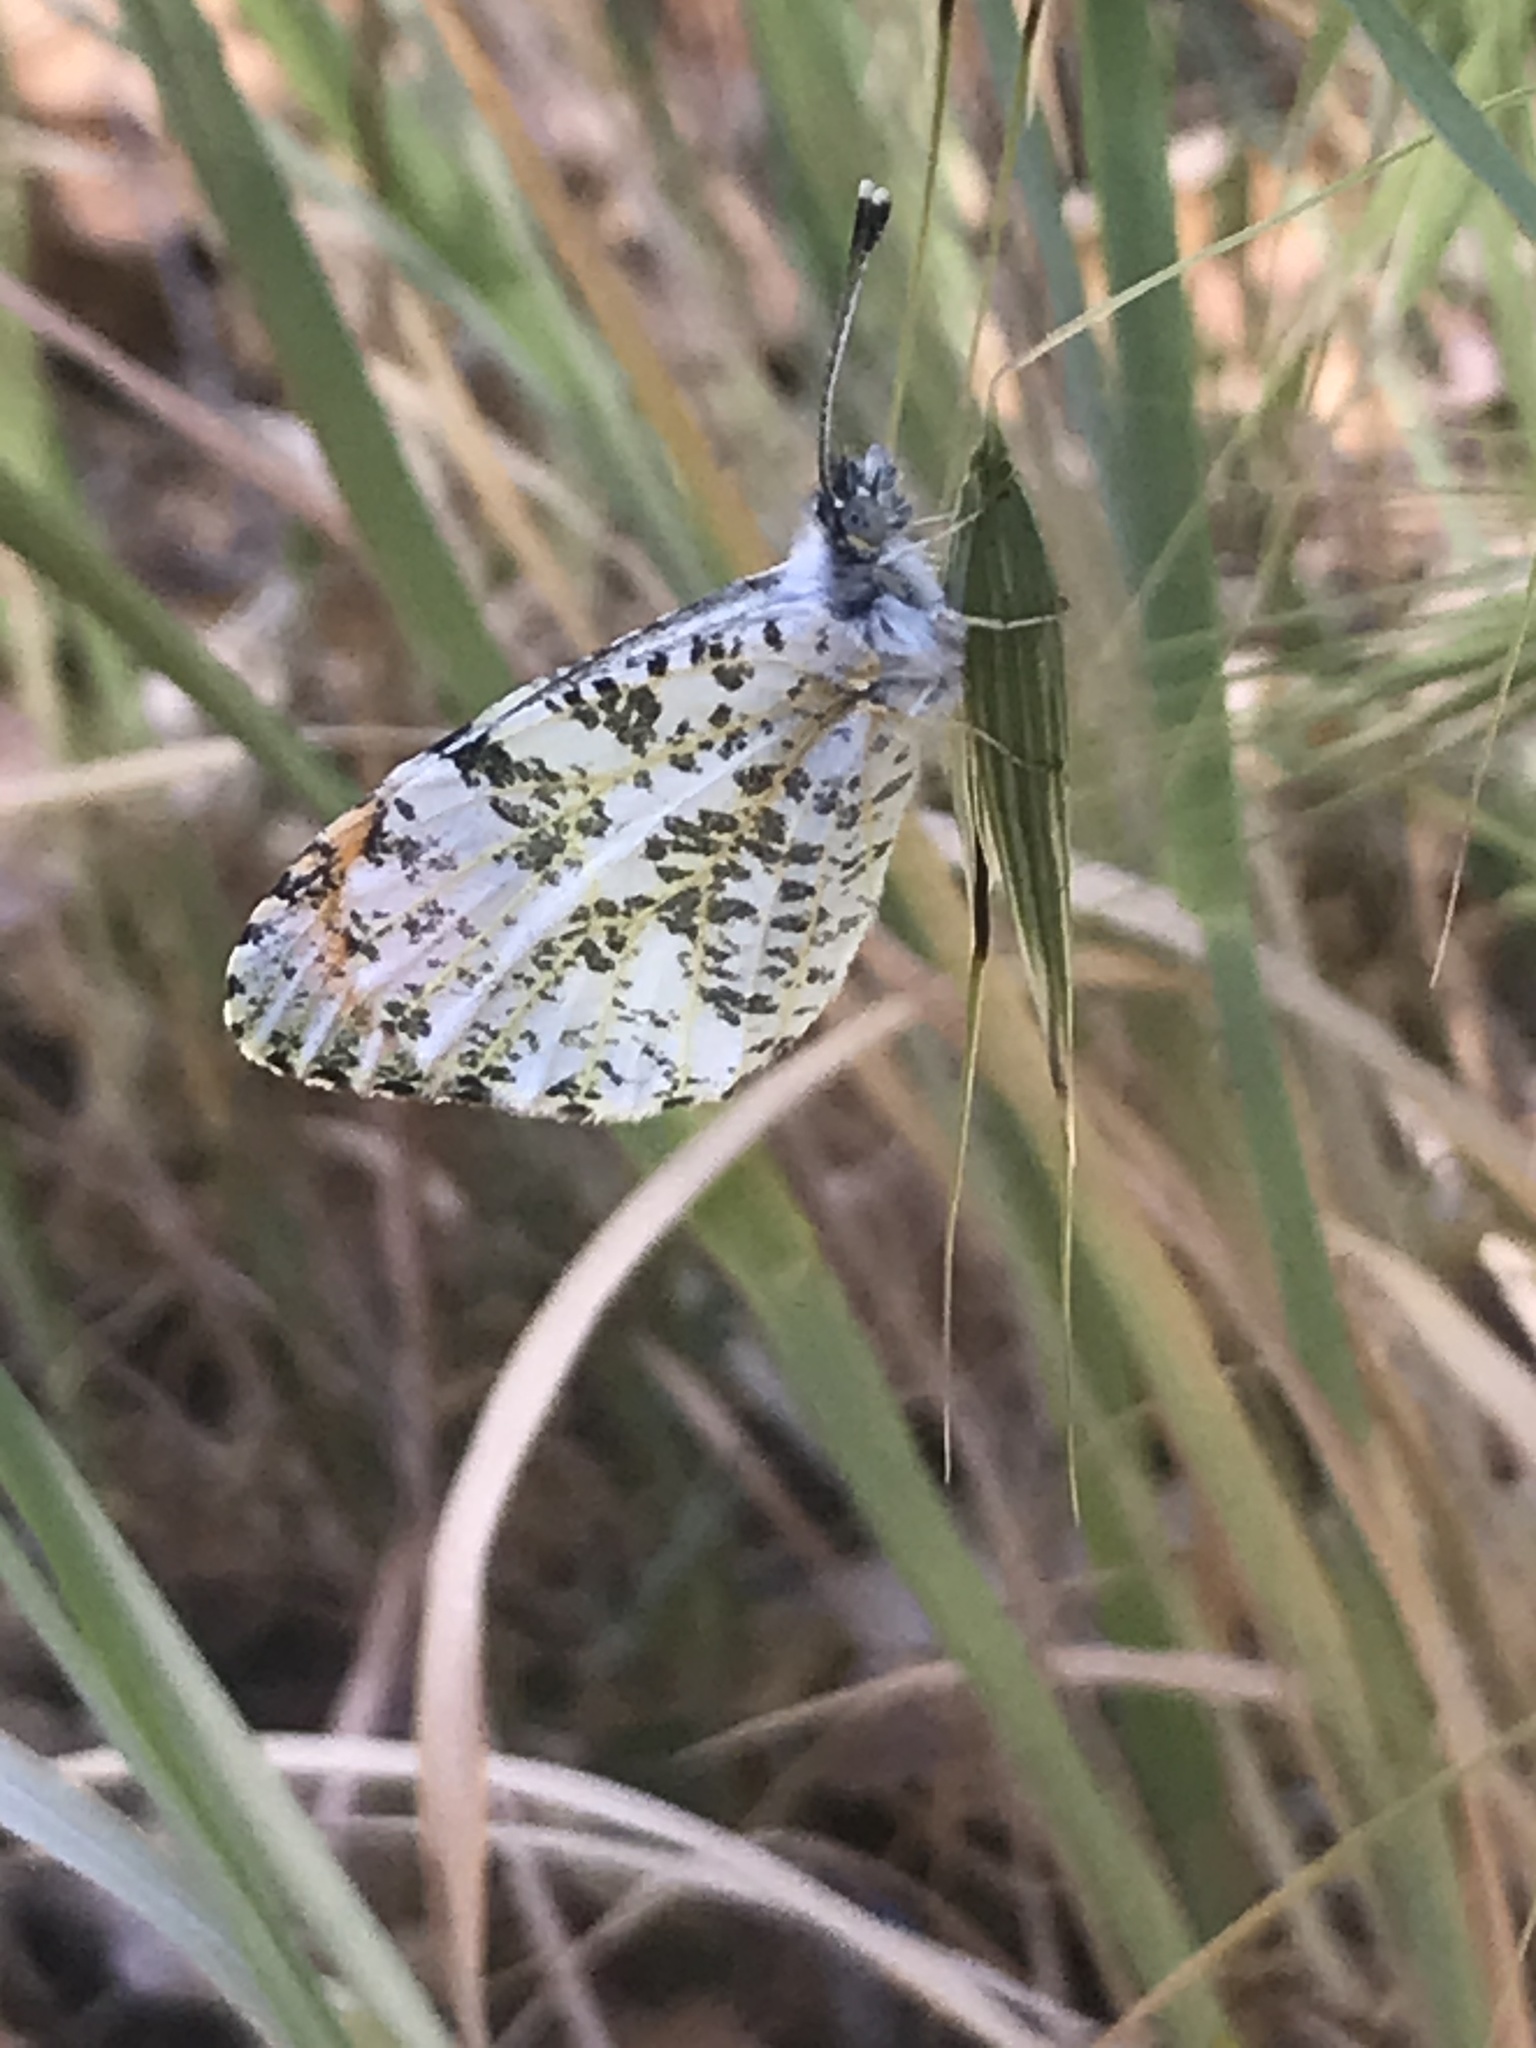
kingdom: Animalia
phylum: Arthropoda
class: Insecta
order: Lepidoptera
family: Pieridae
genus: Anthocharis
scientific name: Anthocharis sara
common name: Sara's orangetip
